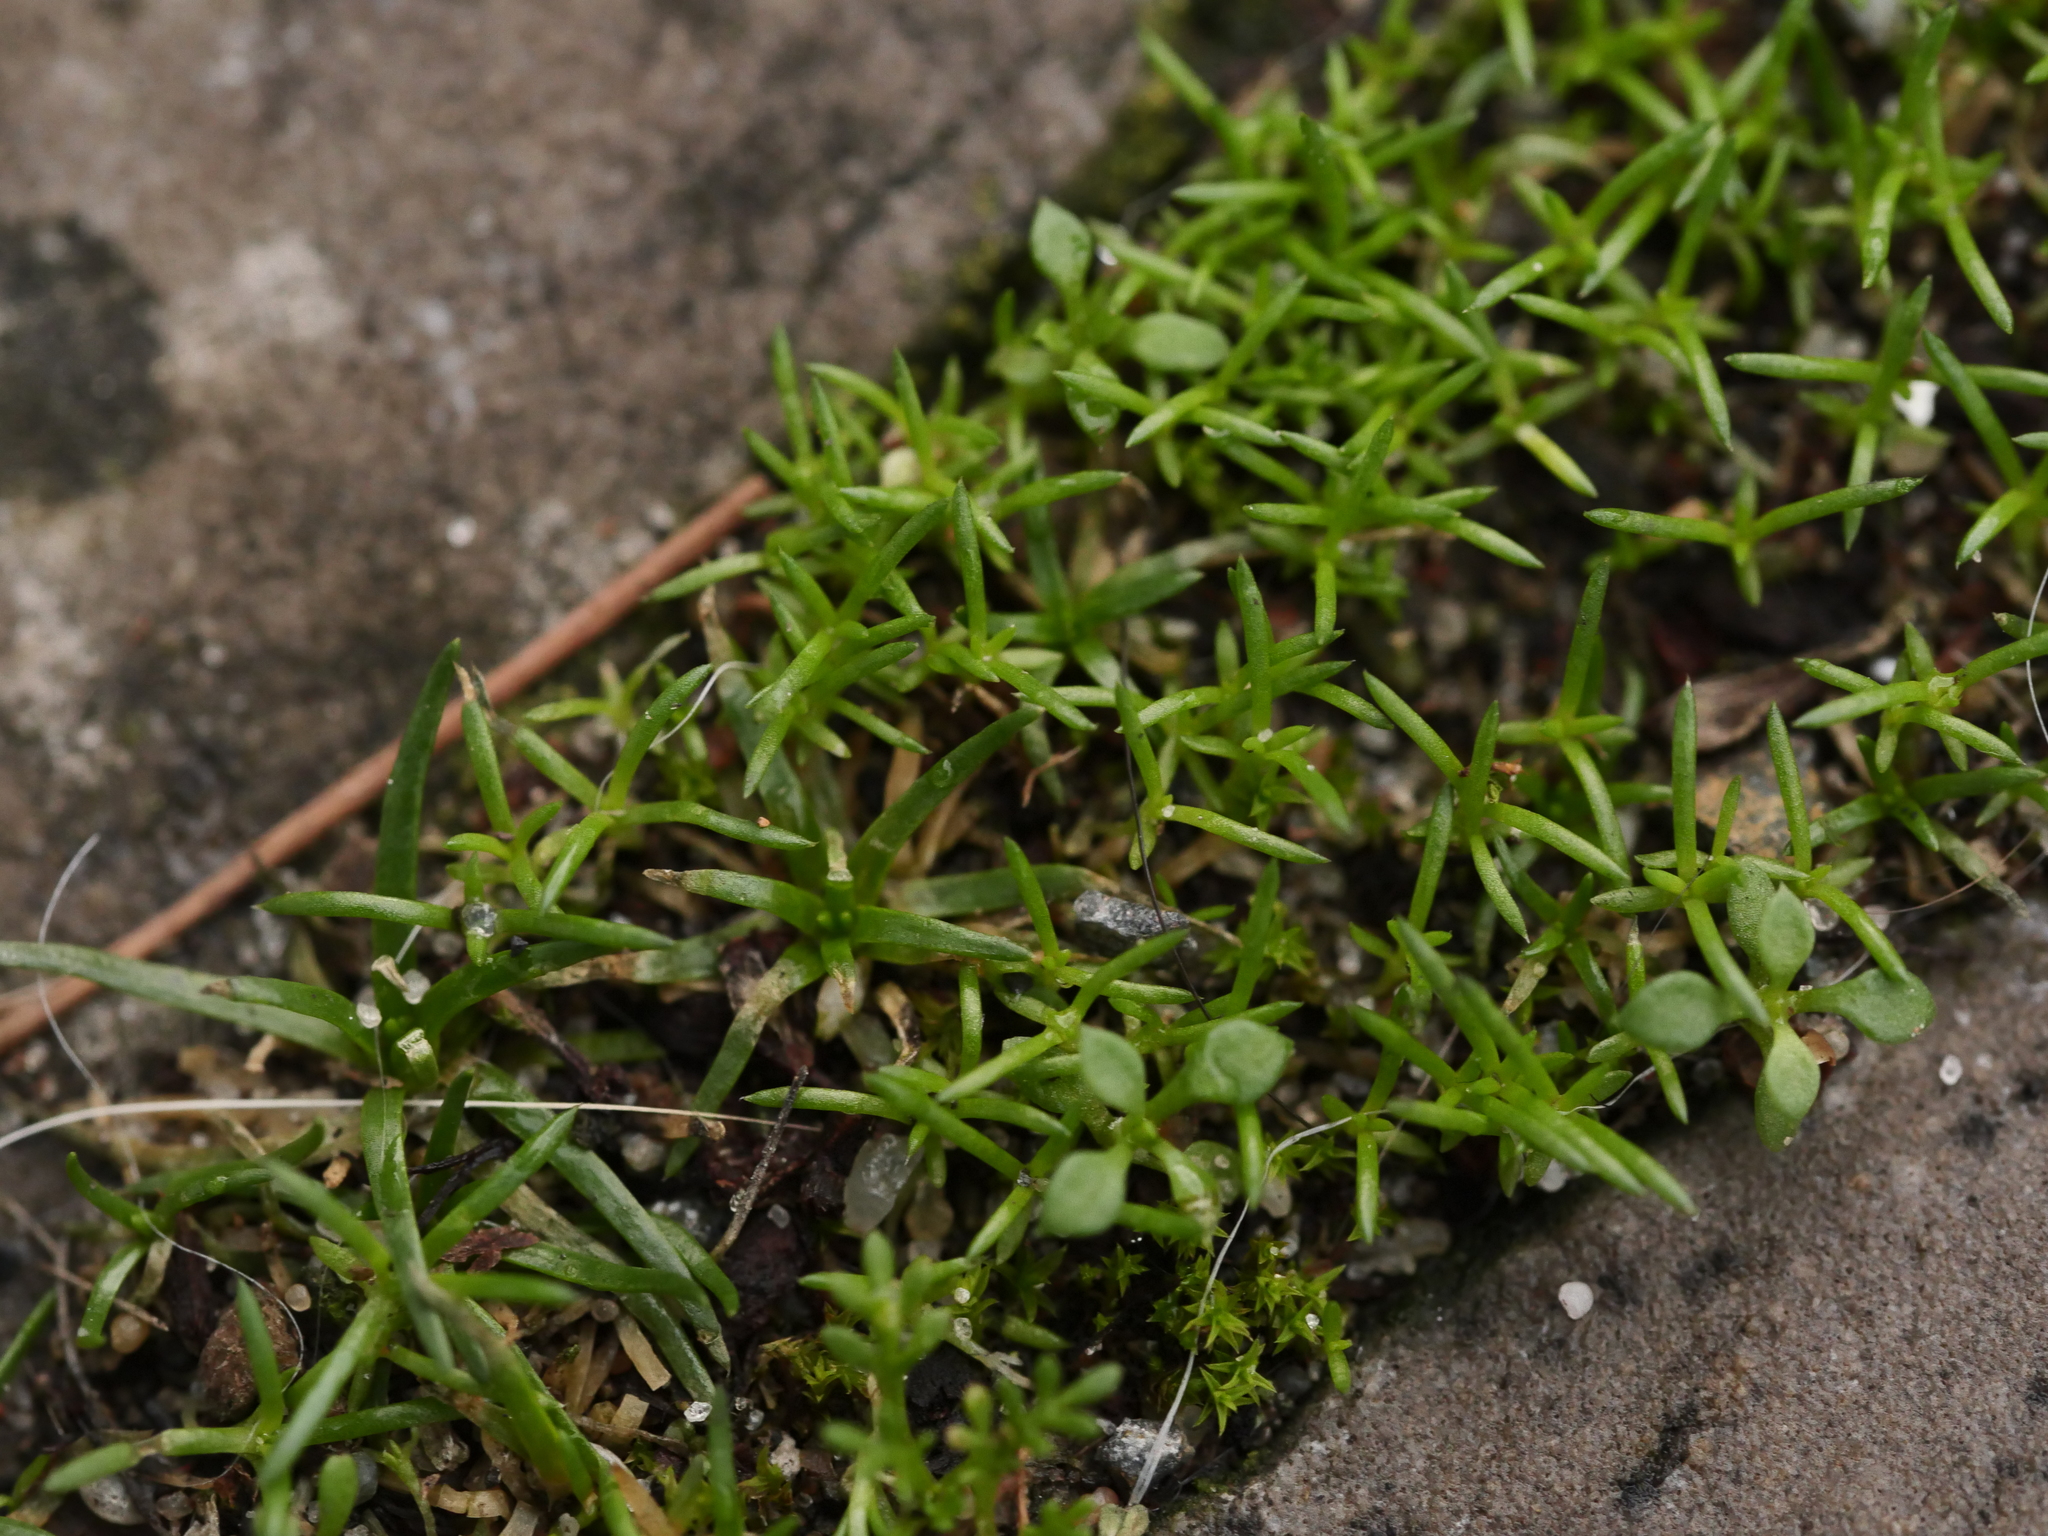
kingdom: Plantae
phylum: Tracheophyta
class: Magnoliopsida
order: Caryophyllales
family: Caryophyllaceae
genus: Sagina
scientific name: Sagina procumbens
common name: Procumbent pearlwort
